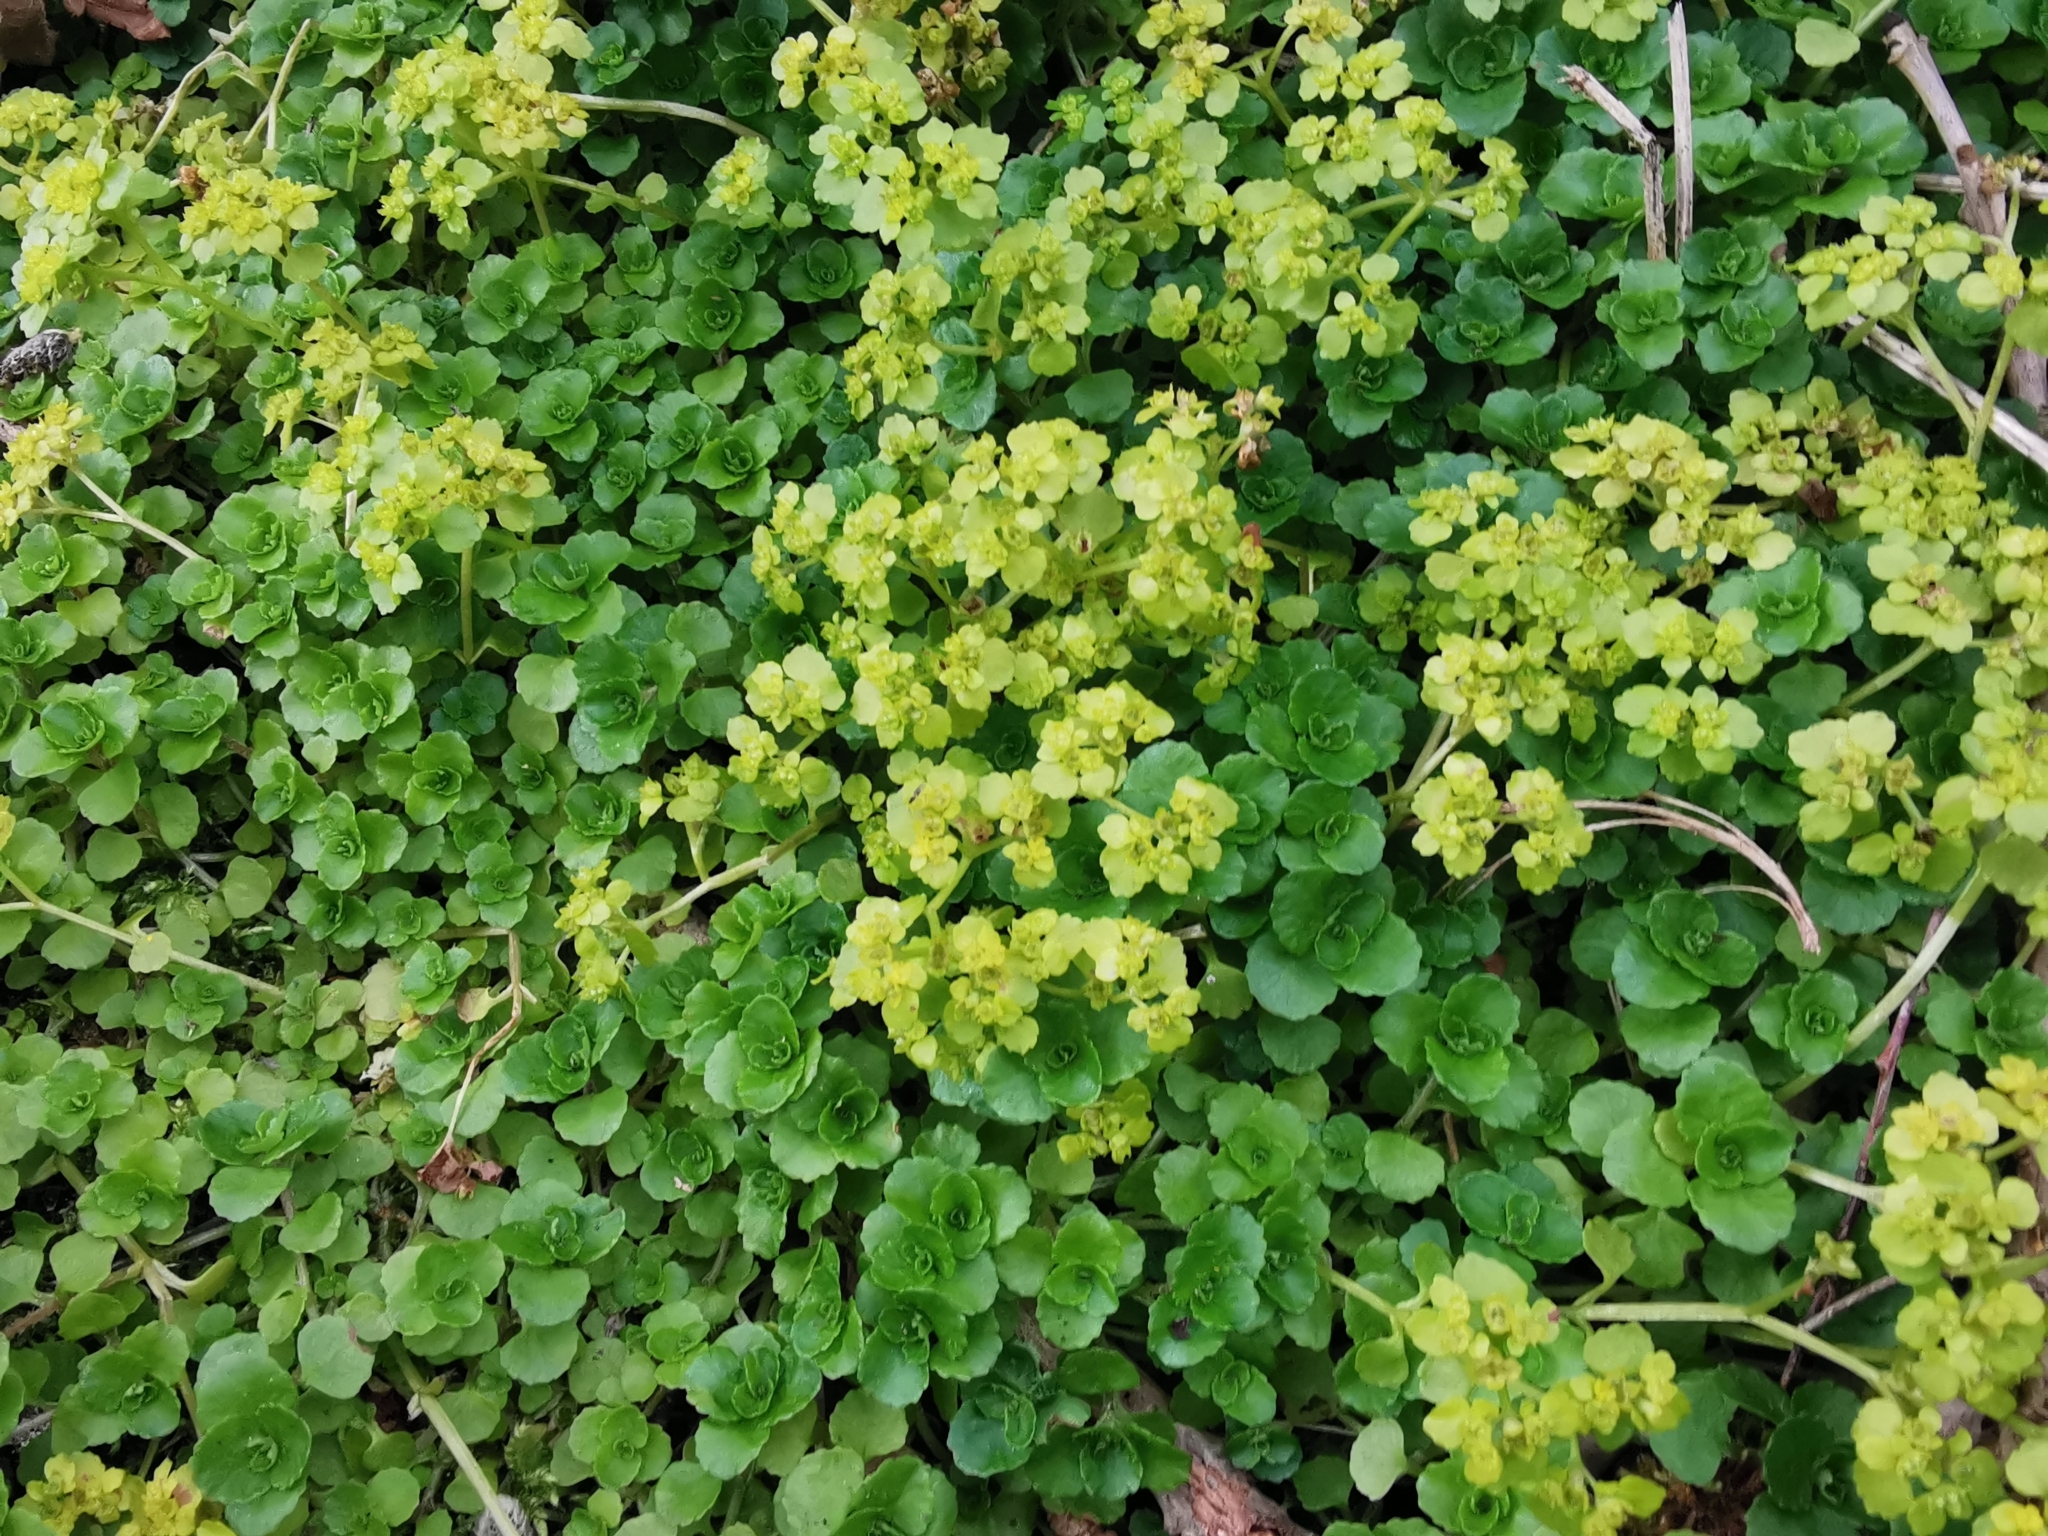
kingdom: Plantae
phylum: Tracheophyta
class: Magnoliopsida
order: Saxifragales
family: Saxifragaceae
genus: Chrysosplenium
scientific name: Chrysosplenium oppositifolium
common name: Opposite-leaved golden-saxifrage
